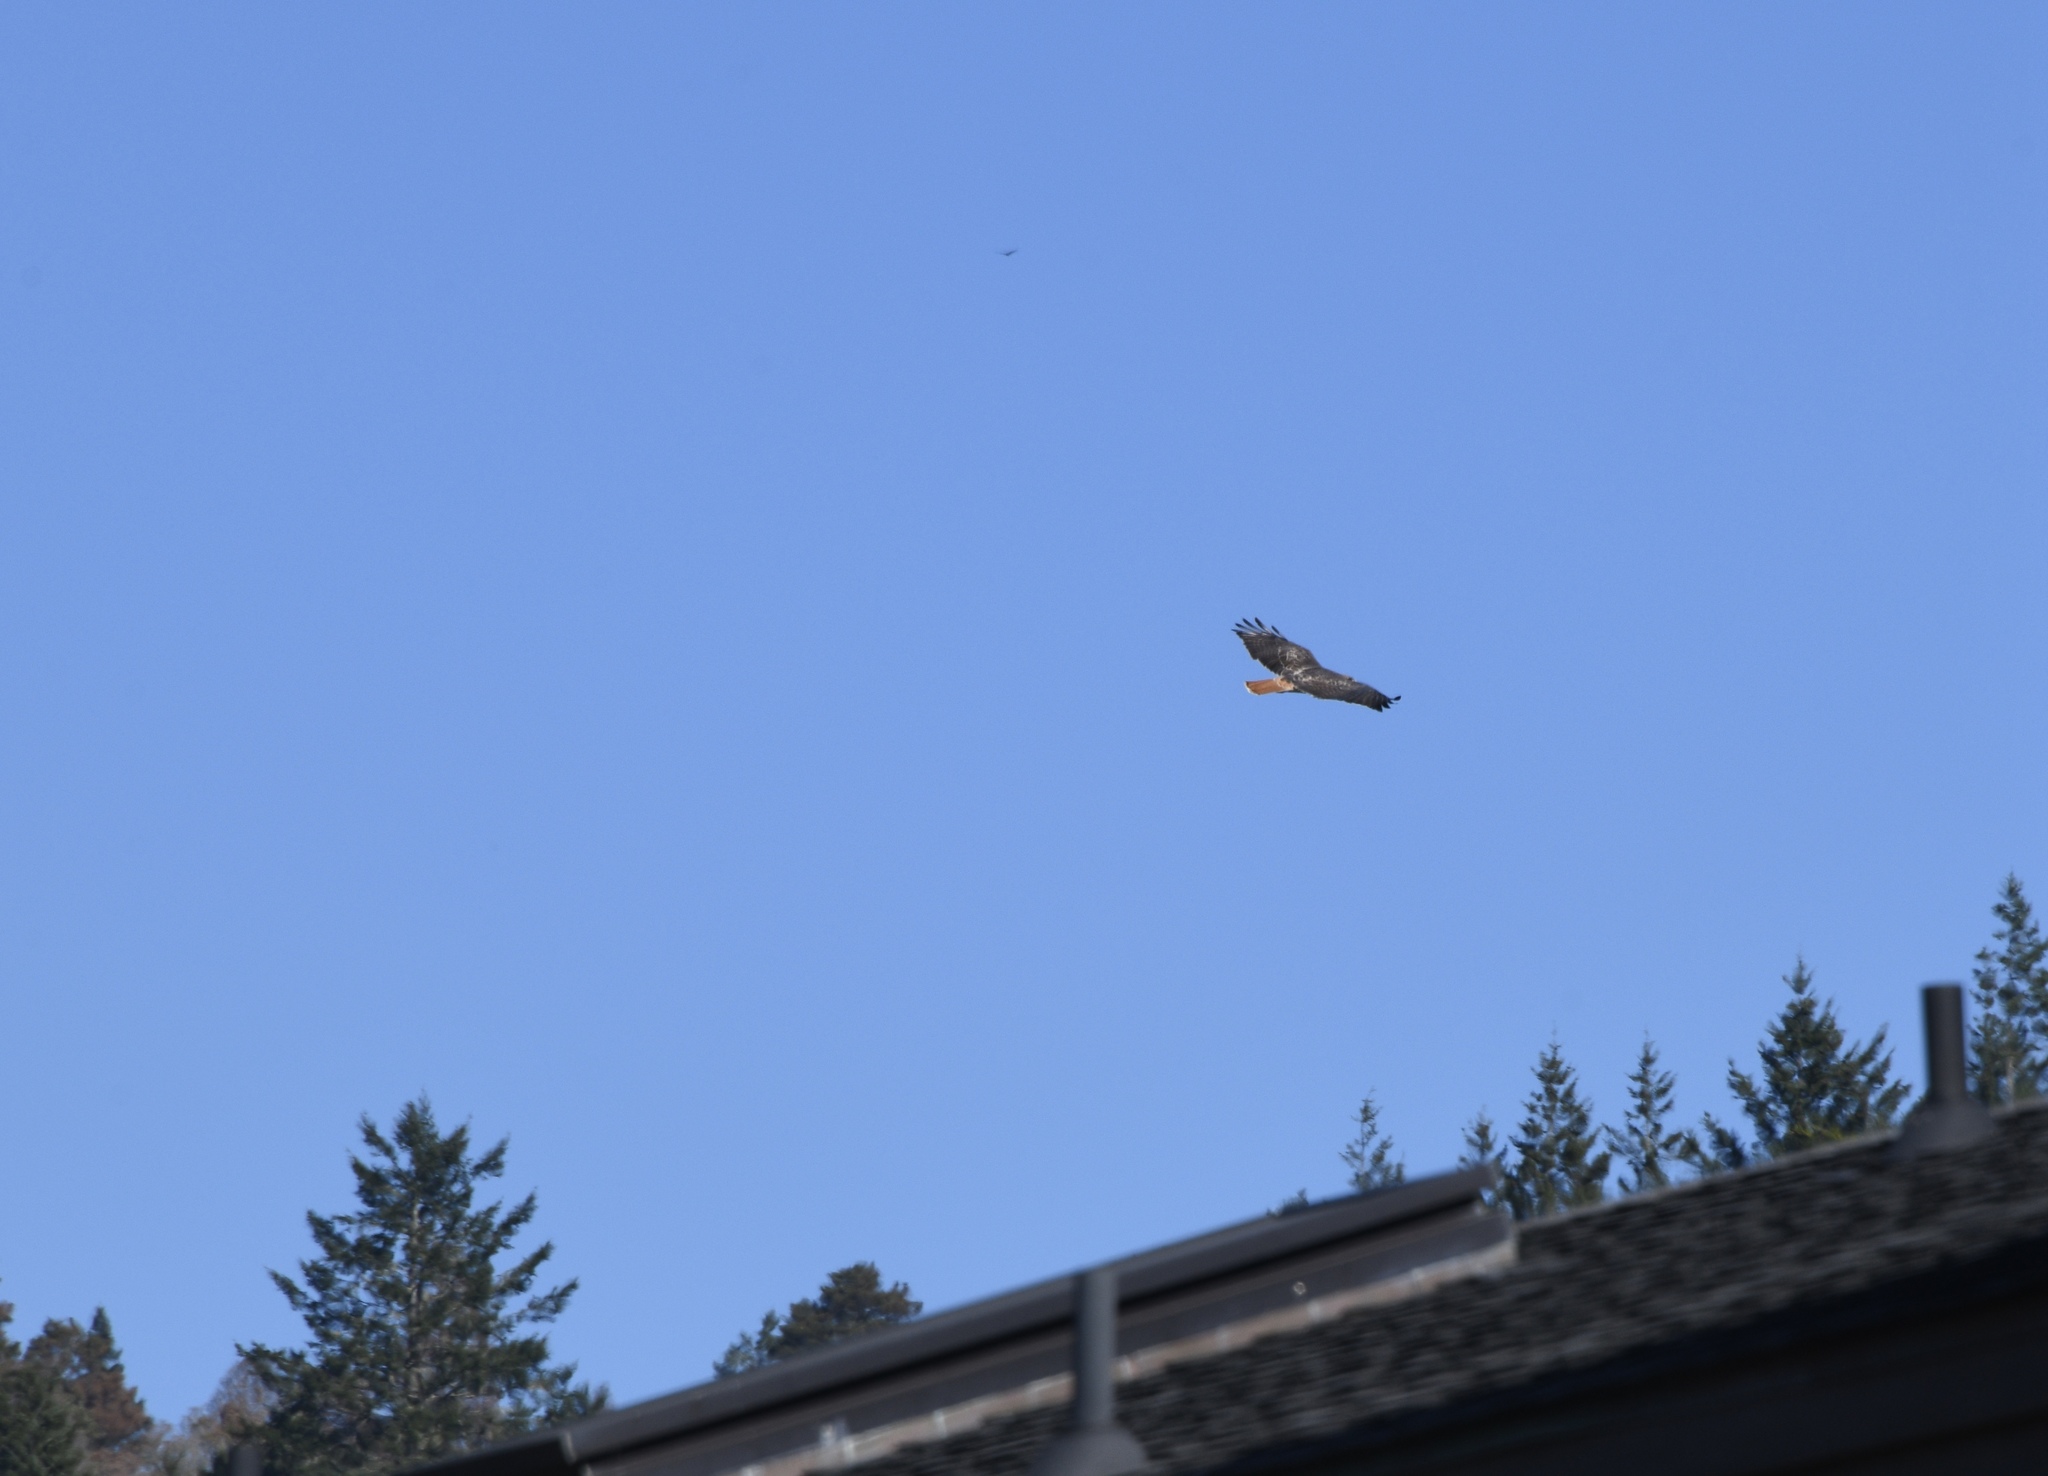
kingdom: Animalia
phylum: Chordata
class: Aves
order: Accipitriformes
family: Accipitridae
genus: Buteo
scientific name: Buteo jamaicensis
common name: Red-tailed hawk
